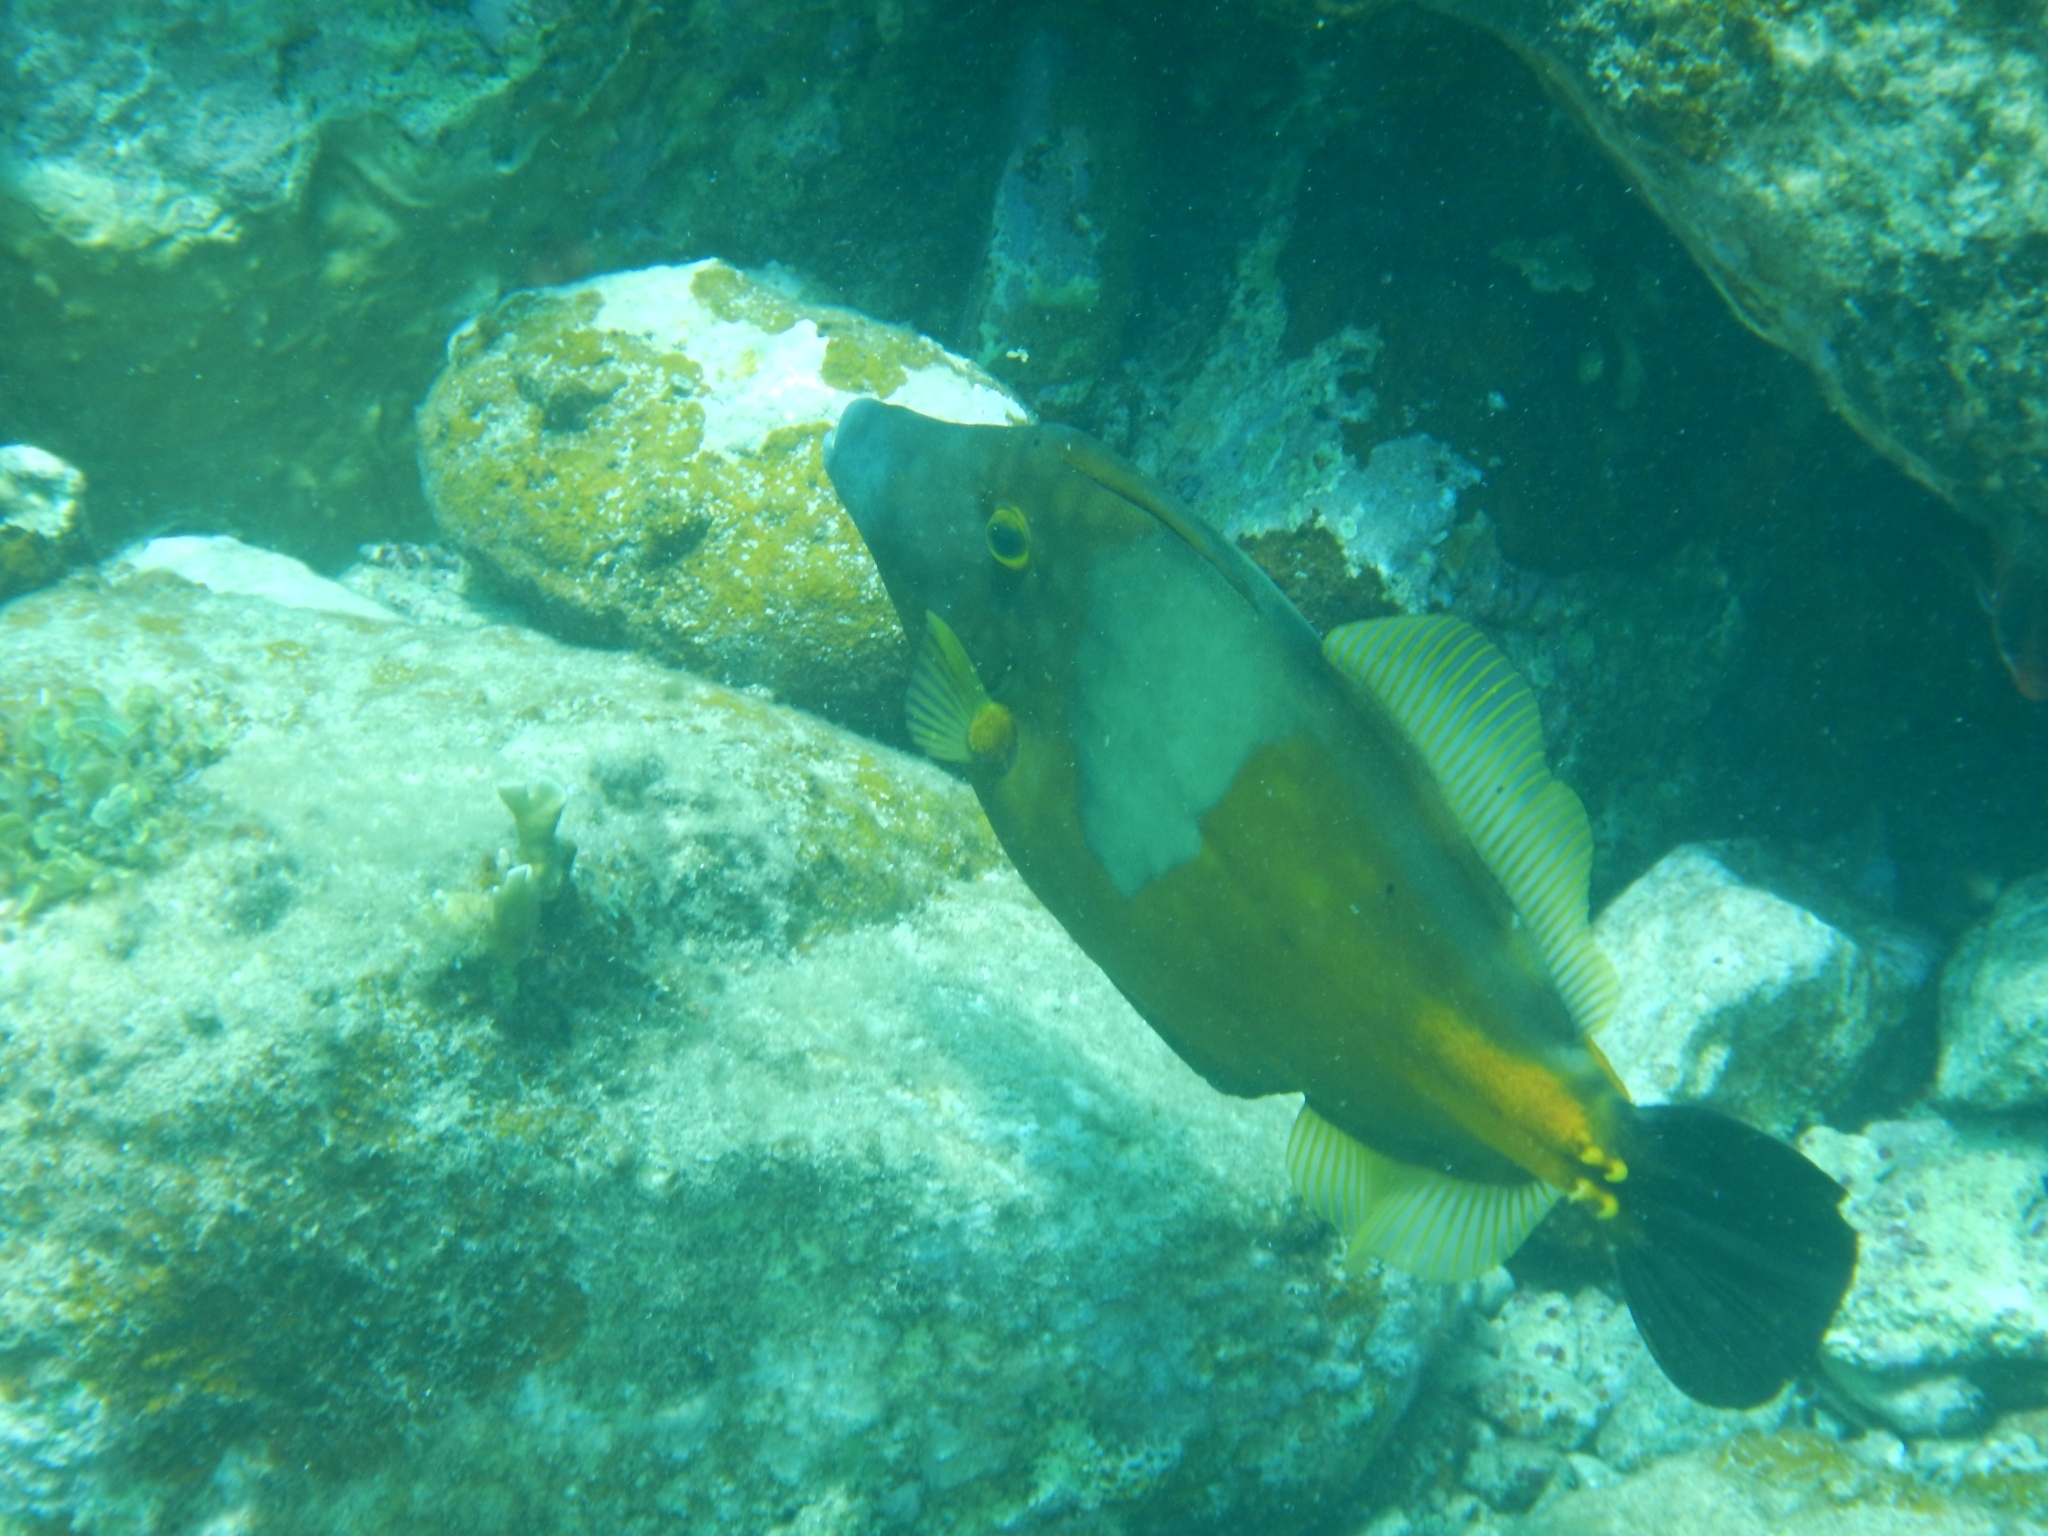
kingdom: Animalia
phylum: Chordata
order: Tetraodontiformes
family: Monacanthidae
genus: Cantherhines
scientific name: Cantherhines macrocerus
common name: Whitespotted filefish
